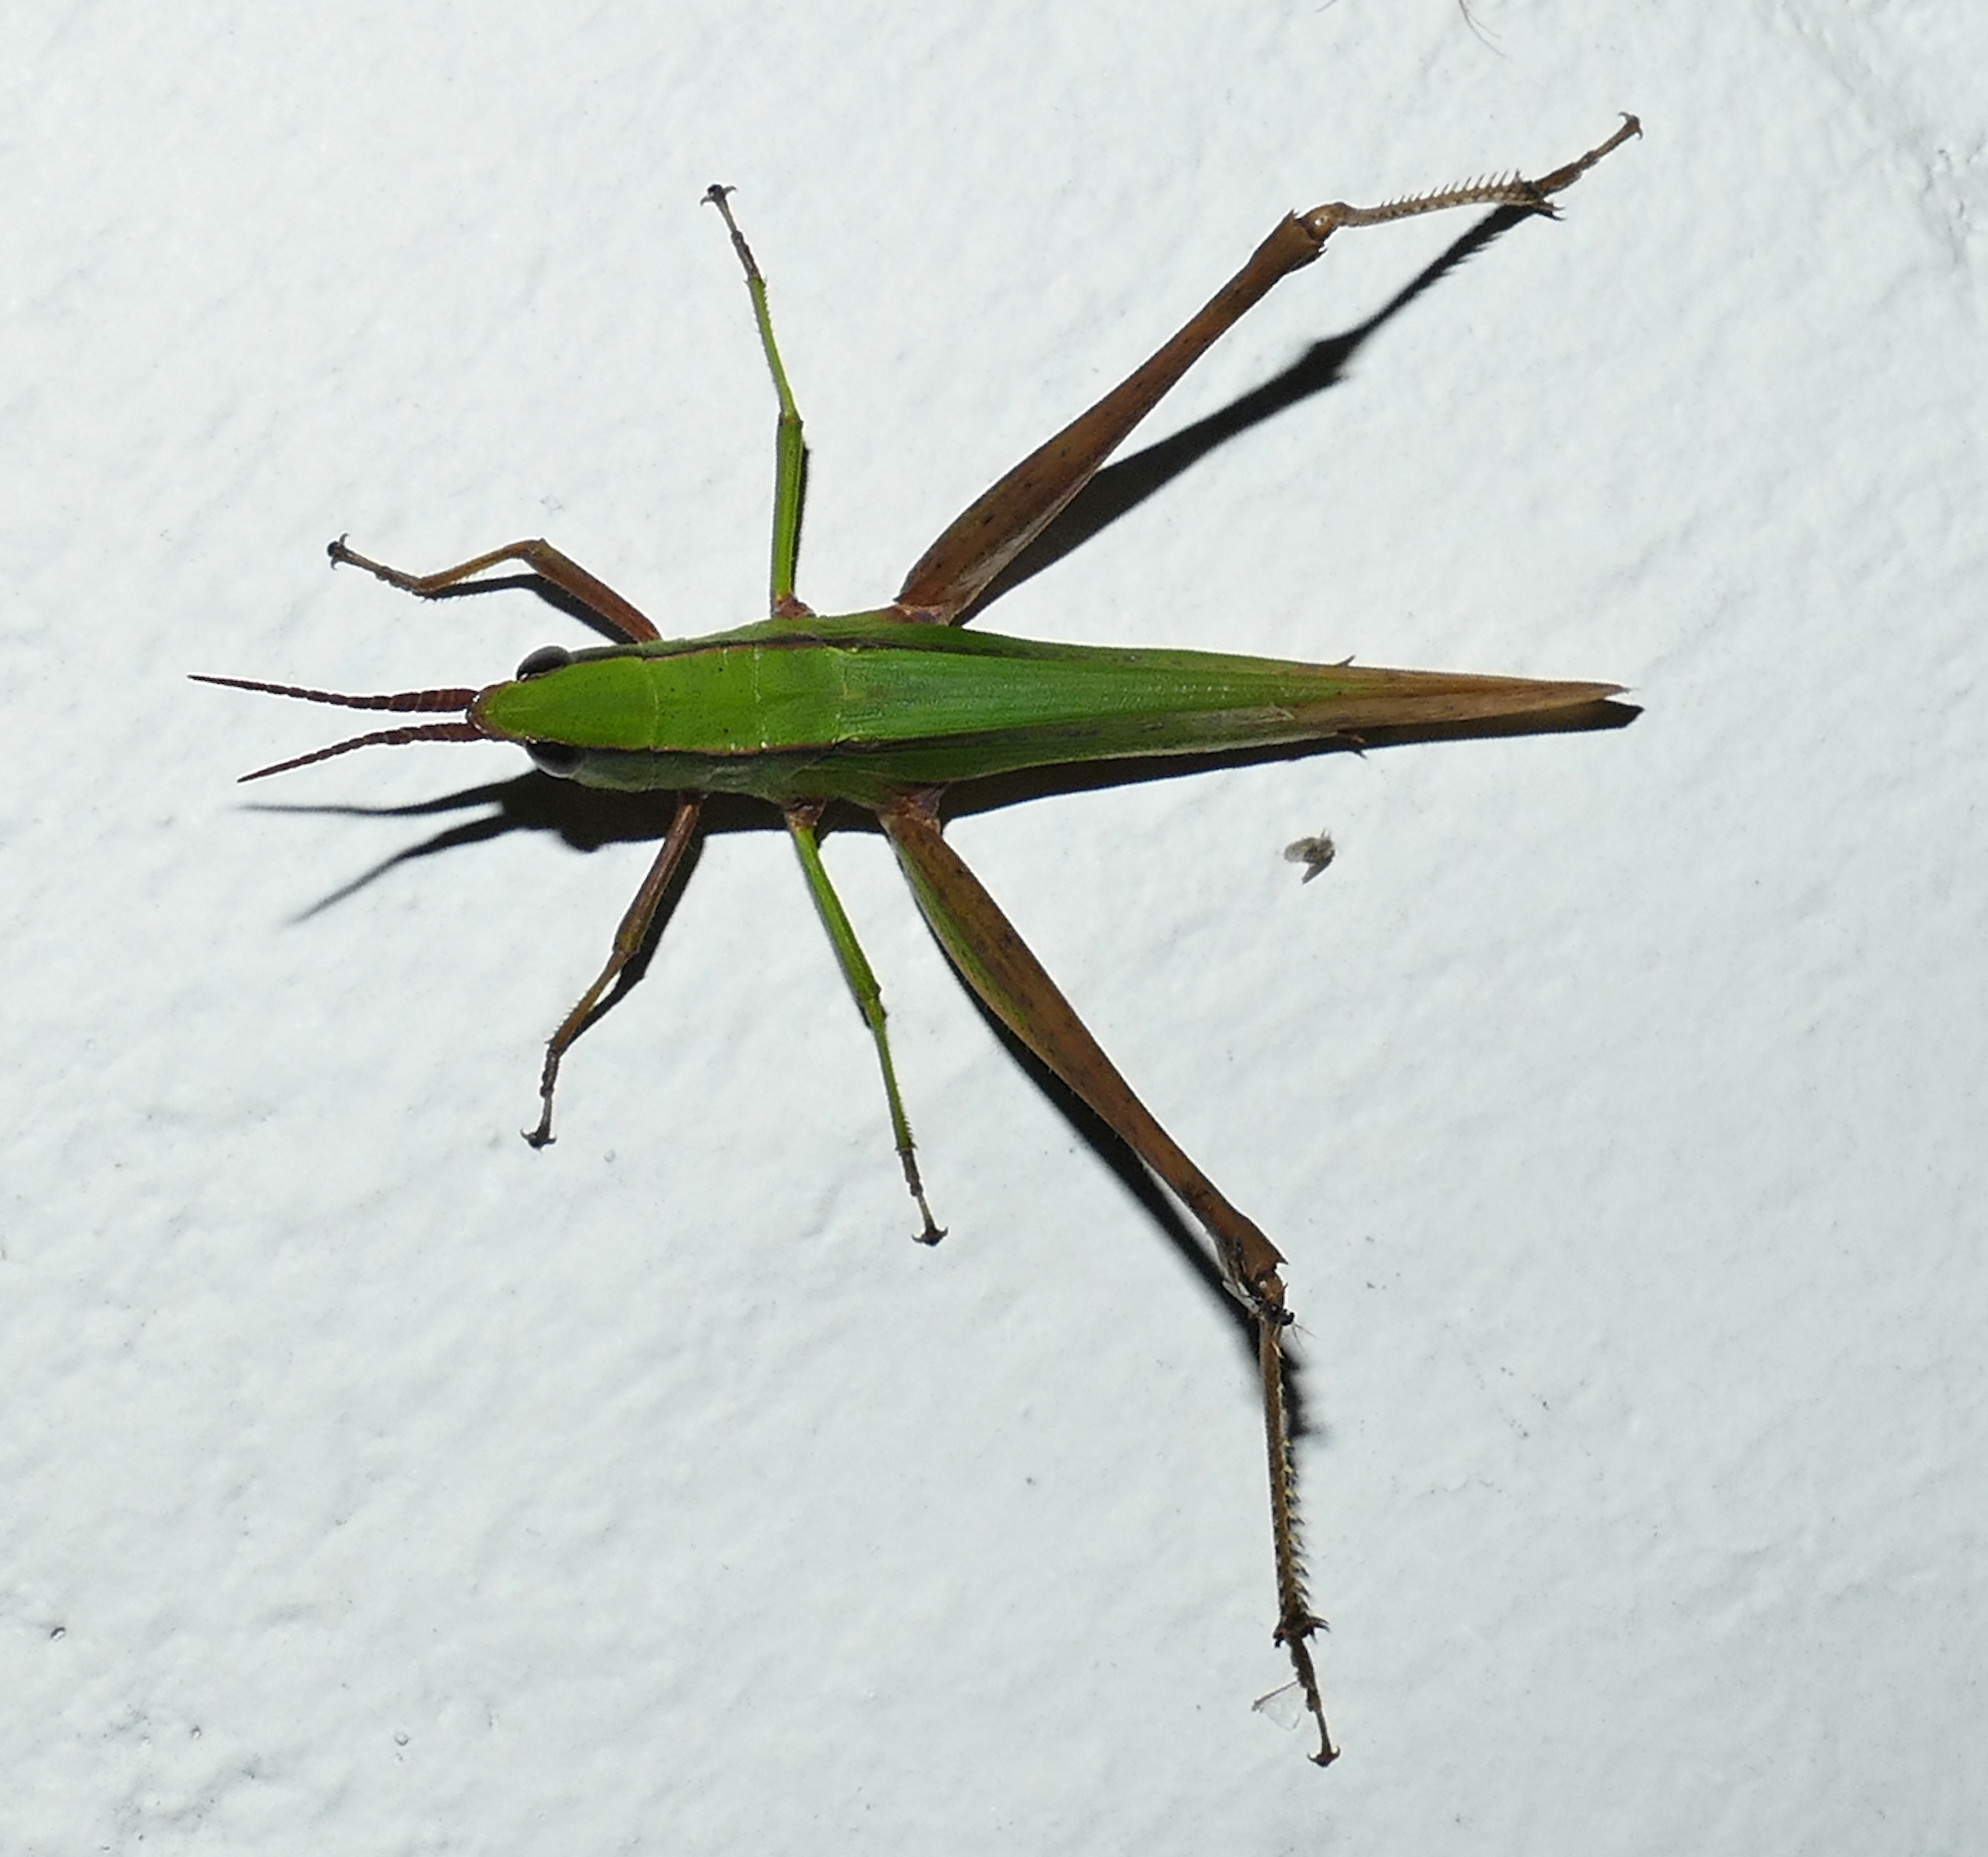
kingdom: Animalia
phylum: Arthropoda
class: Insecta
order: Orthoptera
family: Acrididae
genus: Metaleptea
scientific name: Metaleptea brevicornis
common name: Clipped-wing grasshopper
